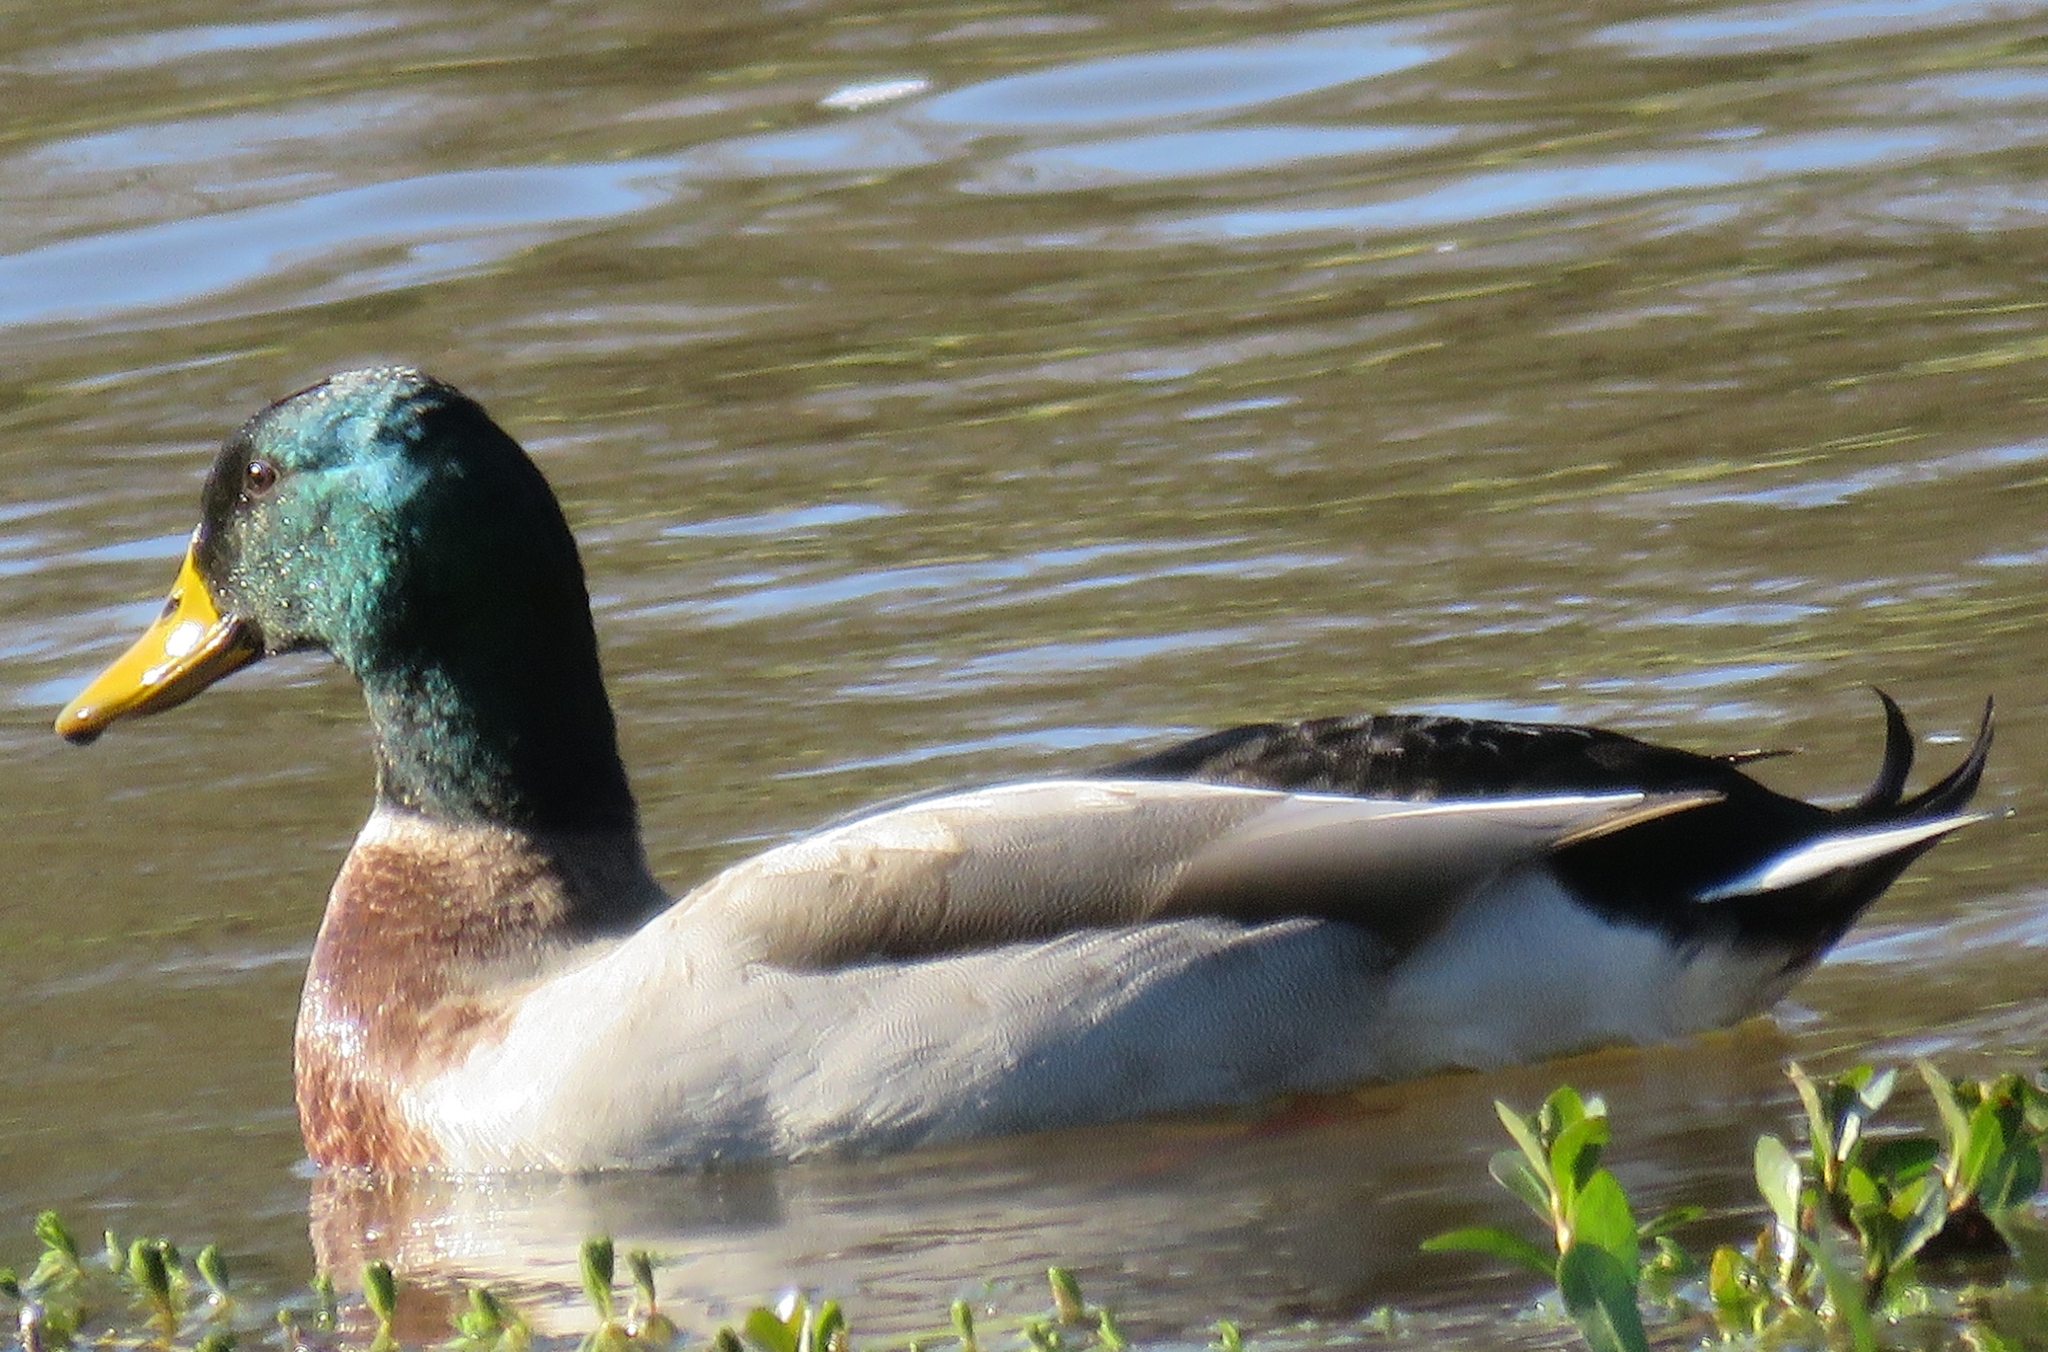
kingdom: Animalia
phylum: Chordata
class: Aves
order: Anseriformes
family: Anatidae
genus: Anas
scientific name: Anas platyrhynchos
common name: Mallard
